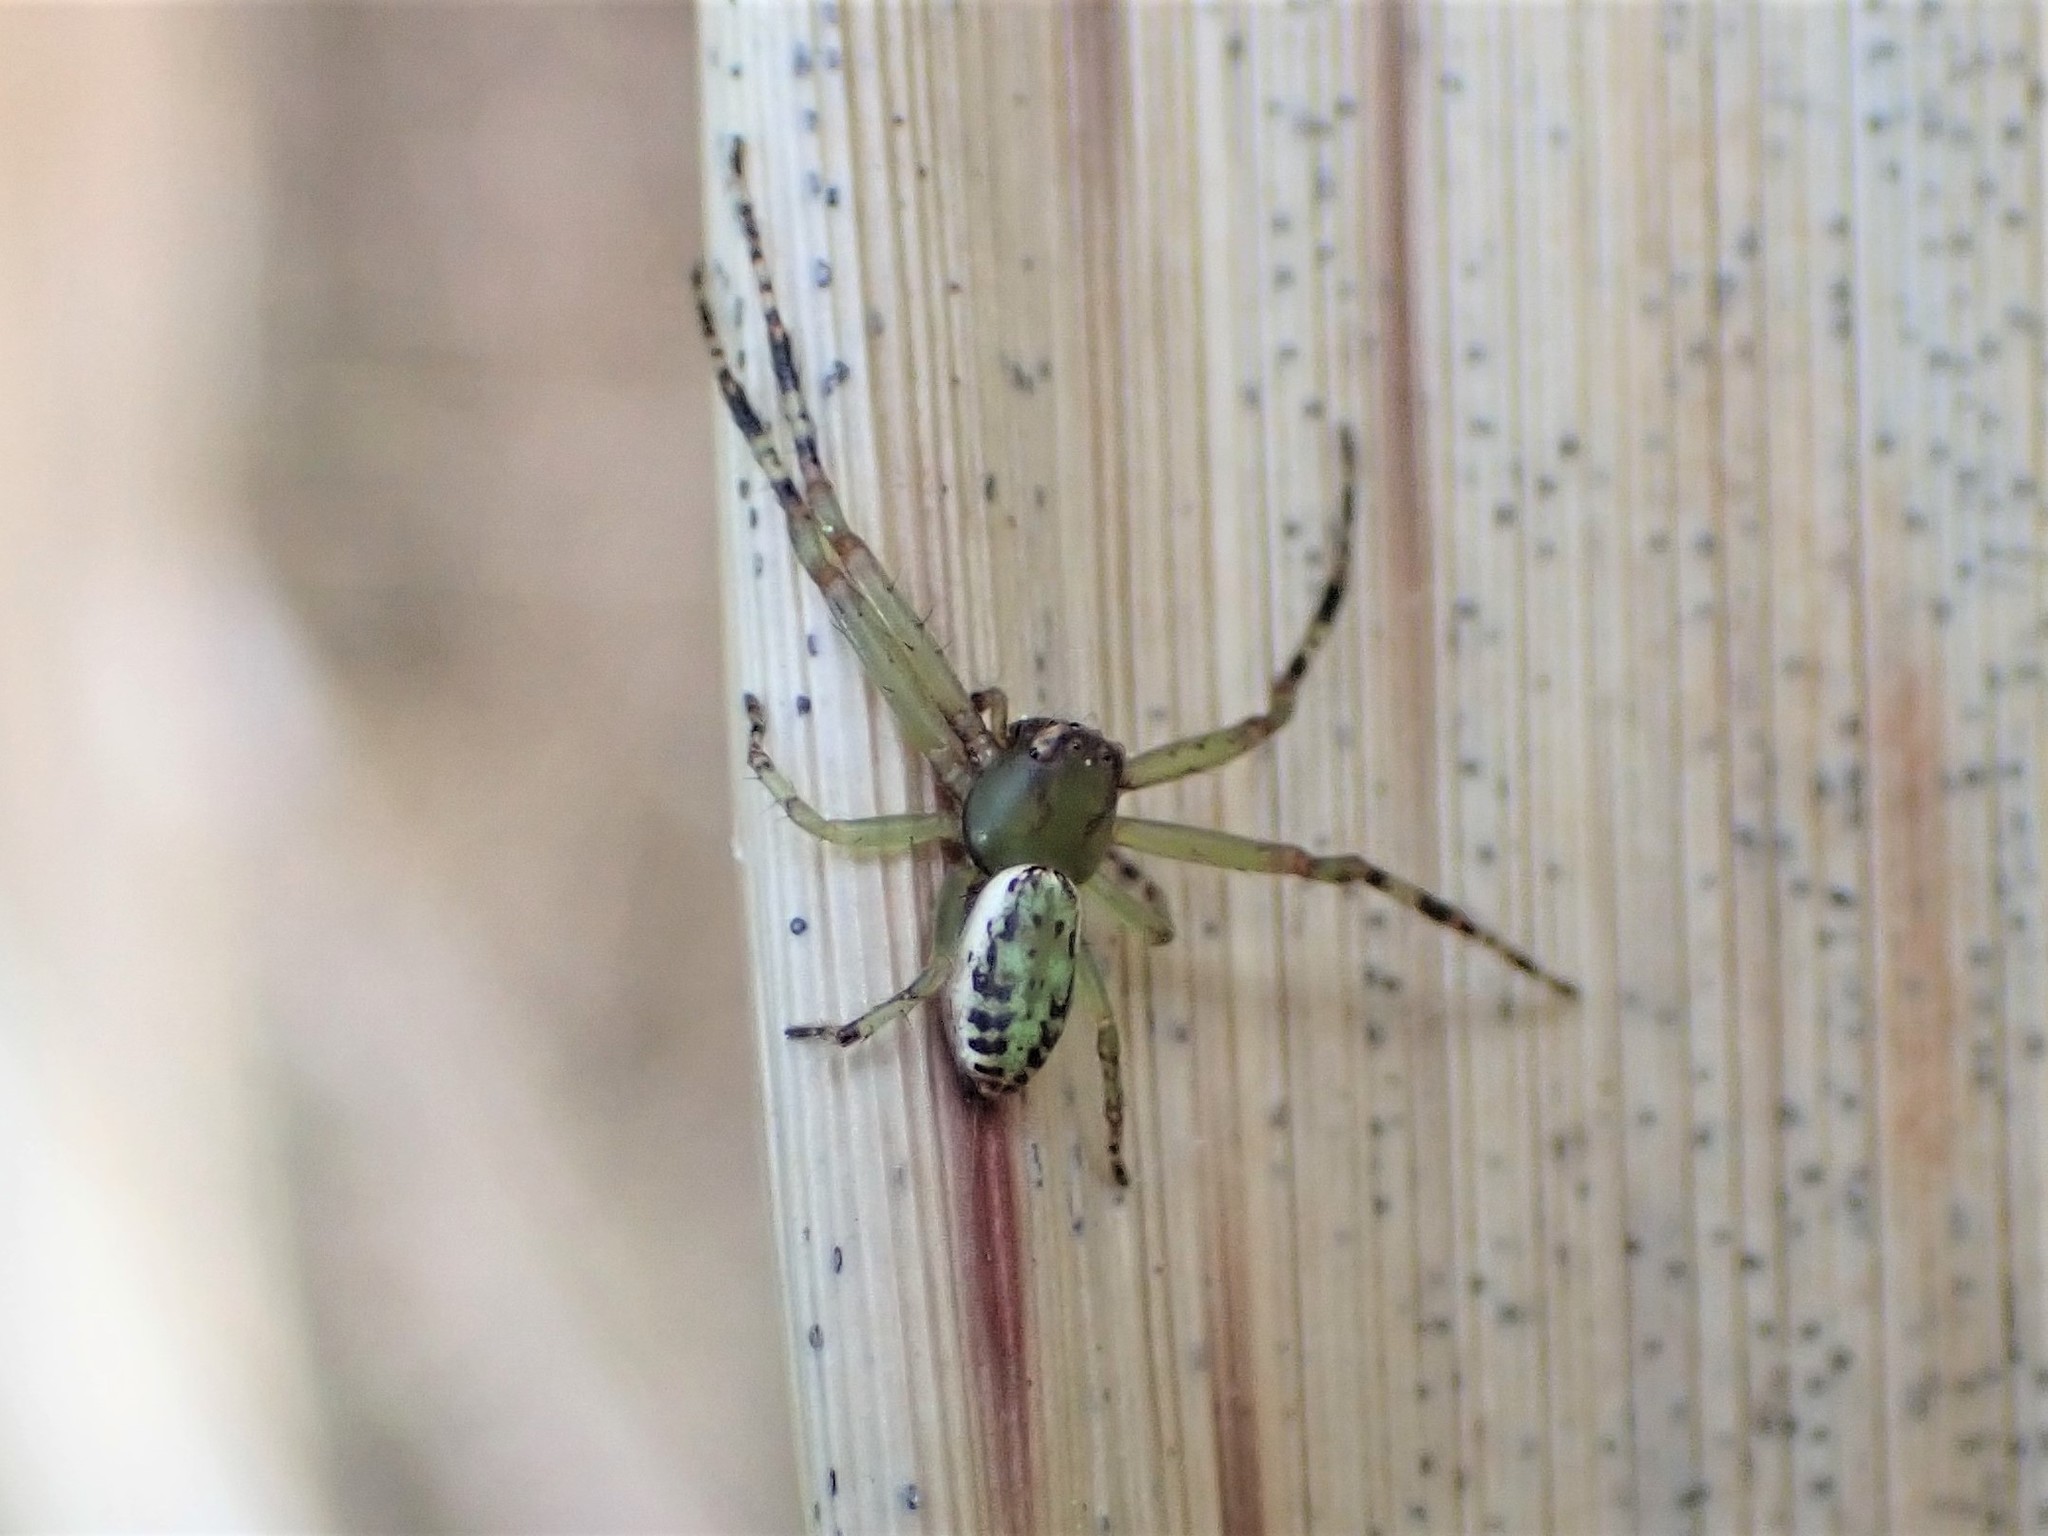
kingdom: Animalia
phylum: Arthropoda
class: Arachnida
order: Araneae
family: Thomisidae
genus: Diaea
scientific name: Diaea ambara
